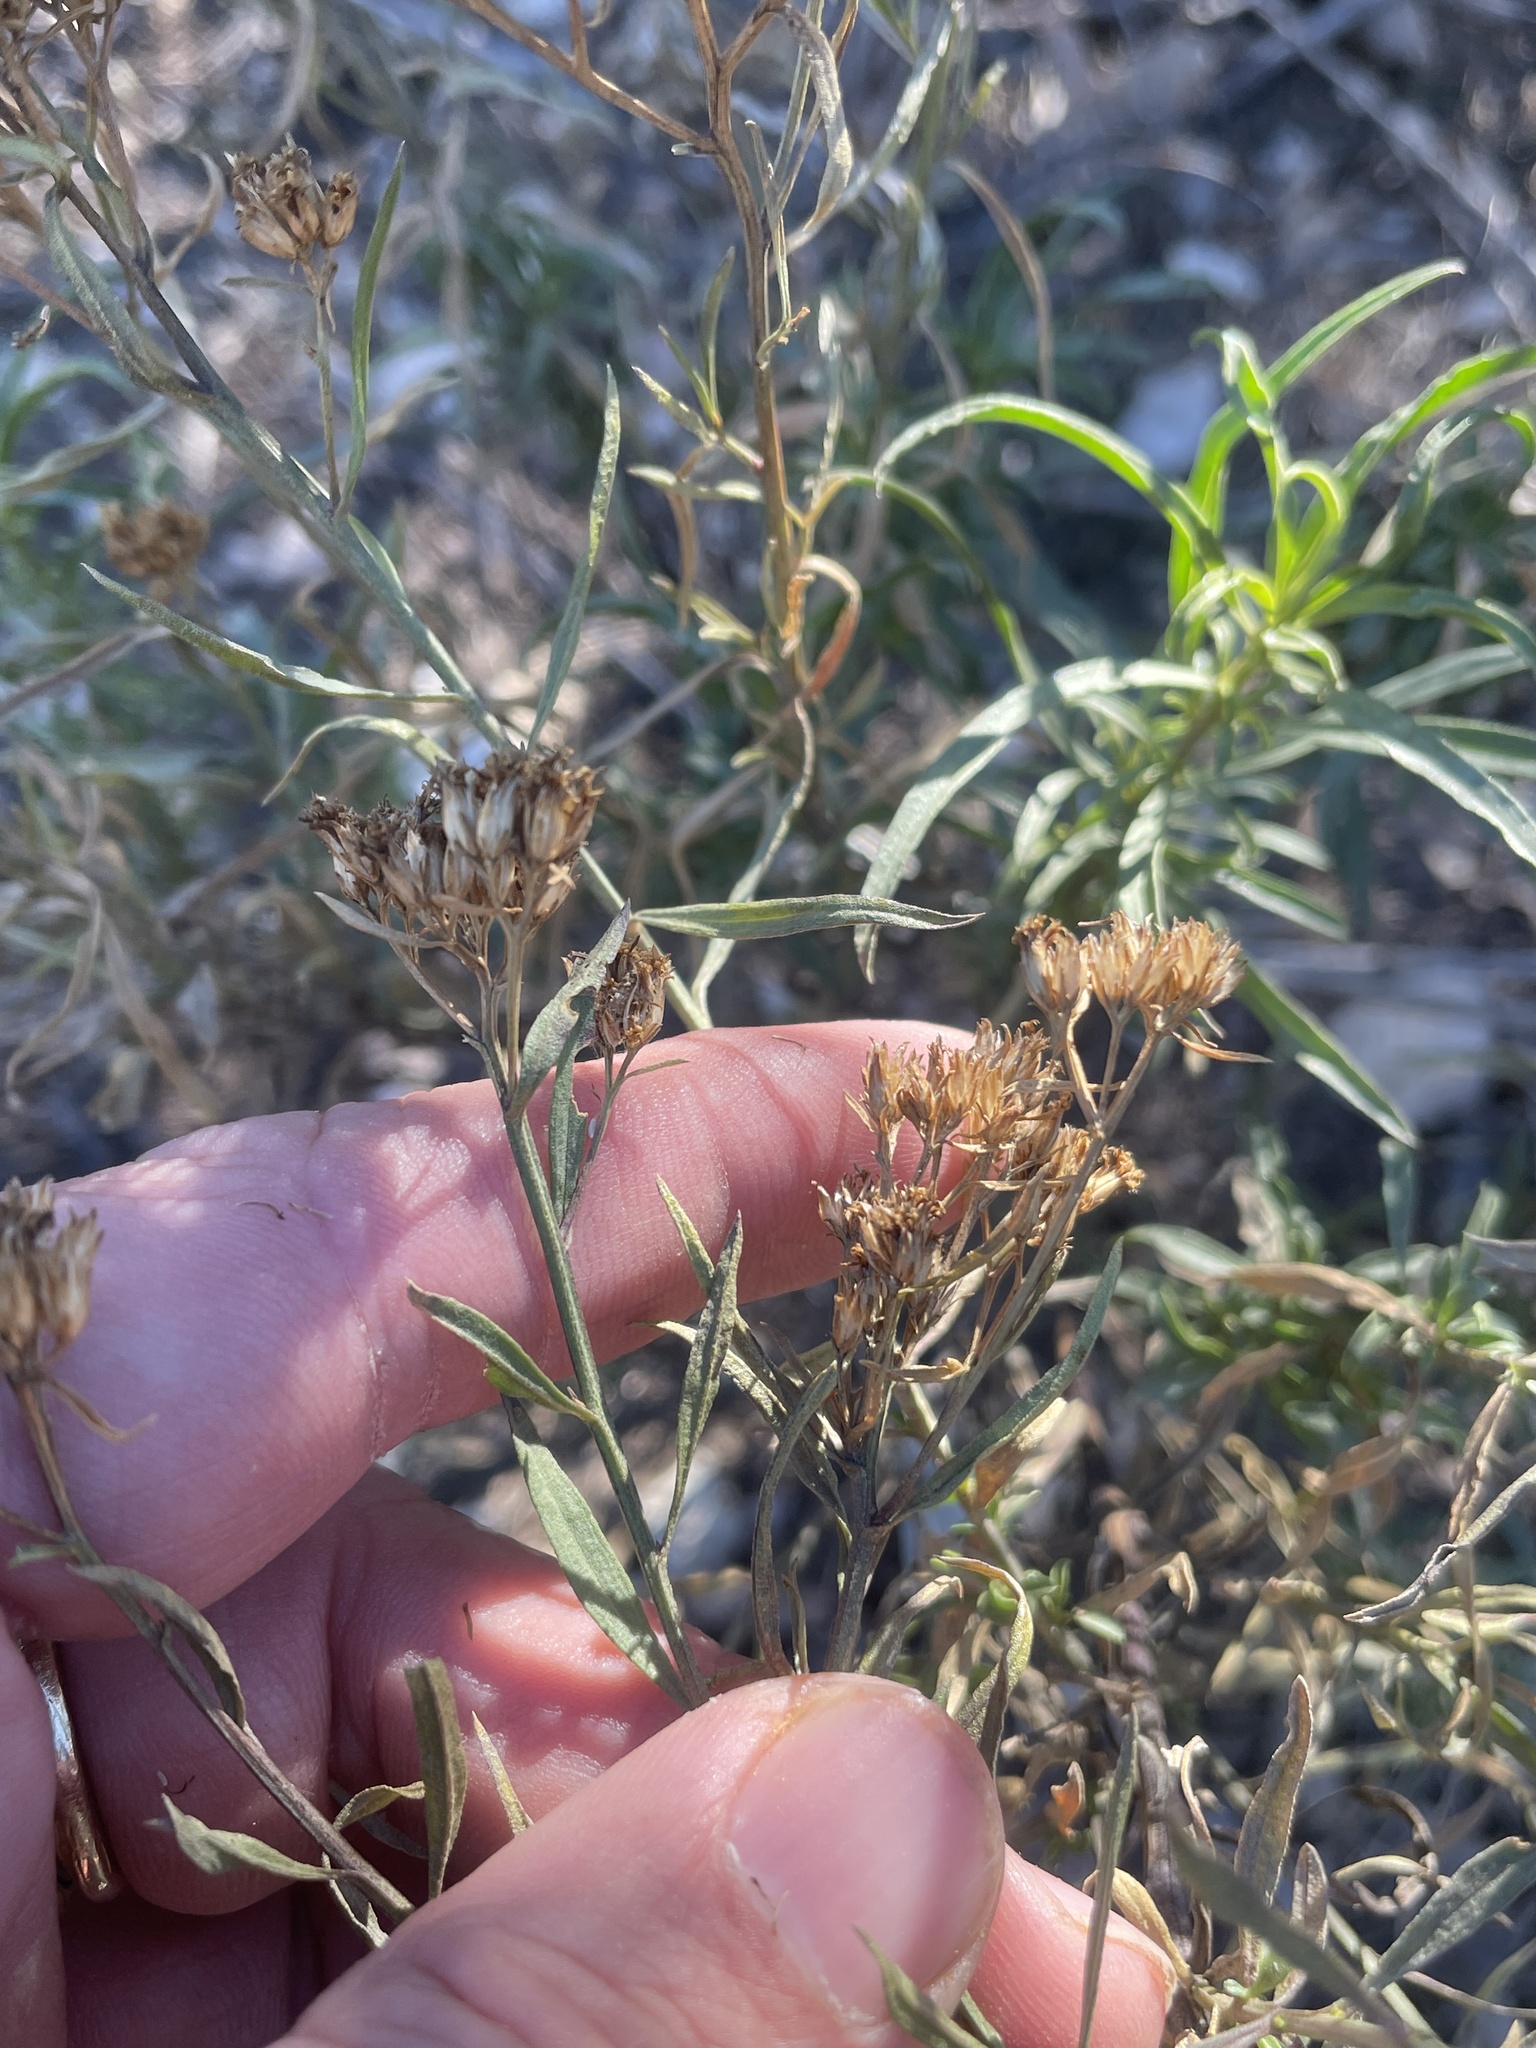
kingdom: Plantae
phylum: Tracheophyta
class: Magnoliopsida
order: Asterales
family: Asteraceae
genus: Gymnosperma
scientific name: Gymnosperma glutinosum
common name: Gumhead
